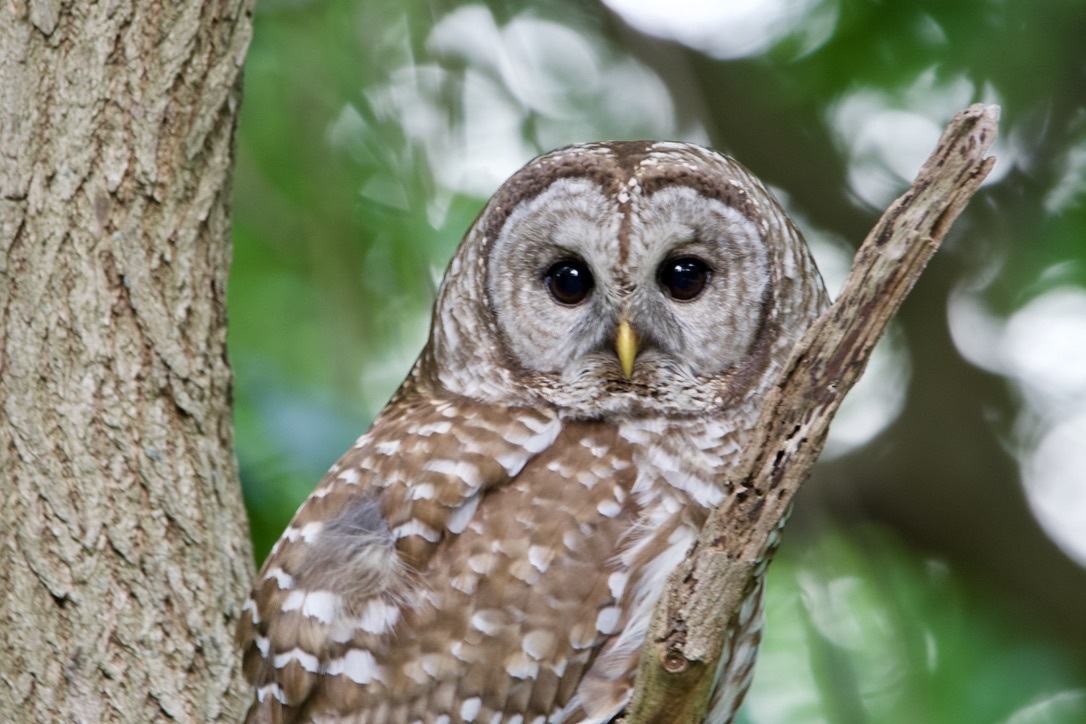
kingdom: Animalia
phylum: Chordata
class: Aves
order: Strigiformes
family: Strigidae
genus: Strix
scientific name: Strix varia
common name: Barred owl
